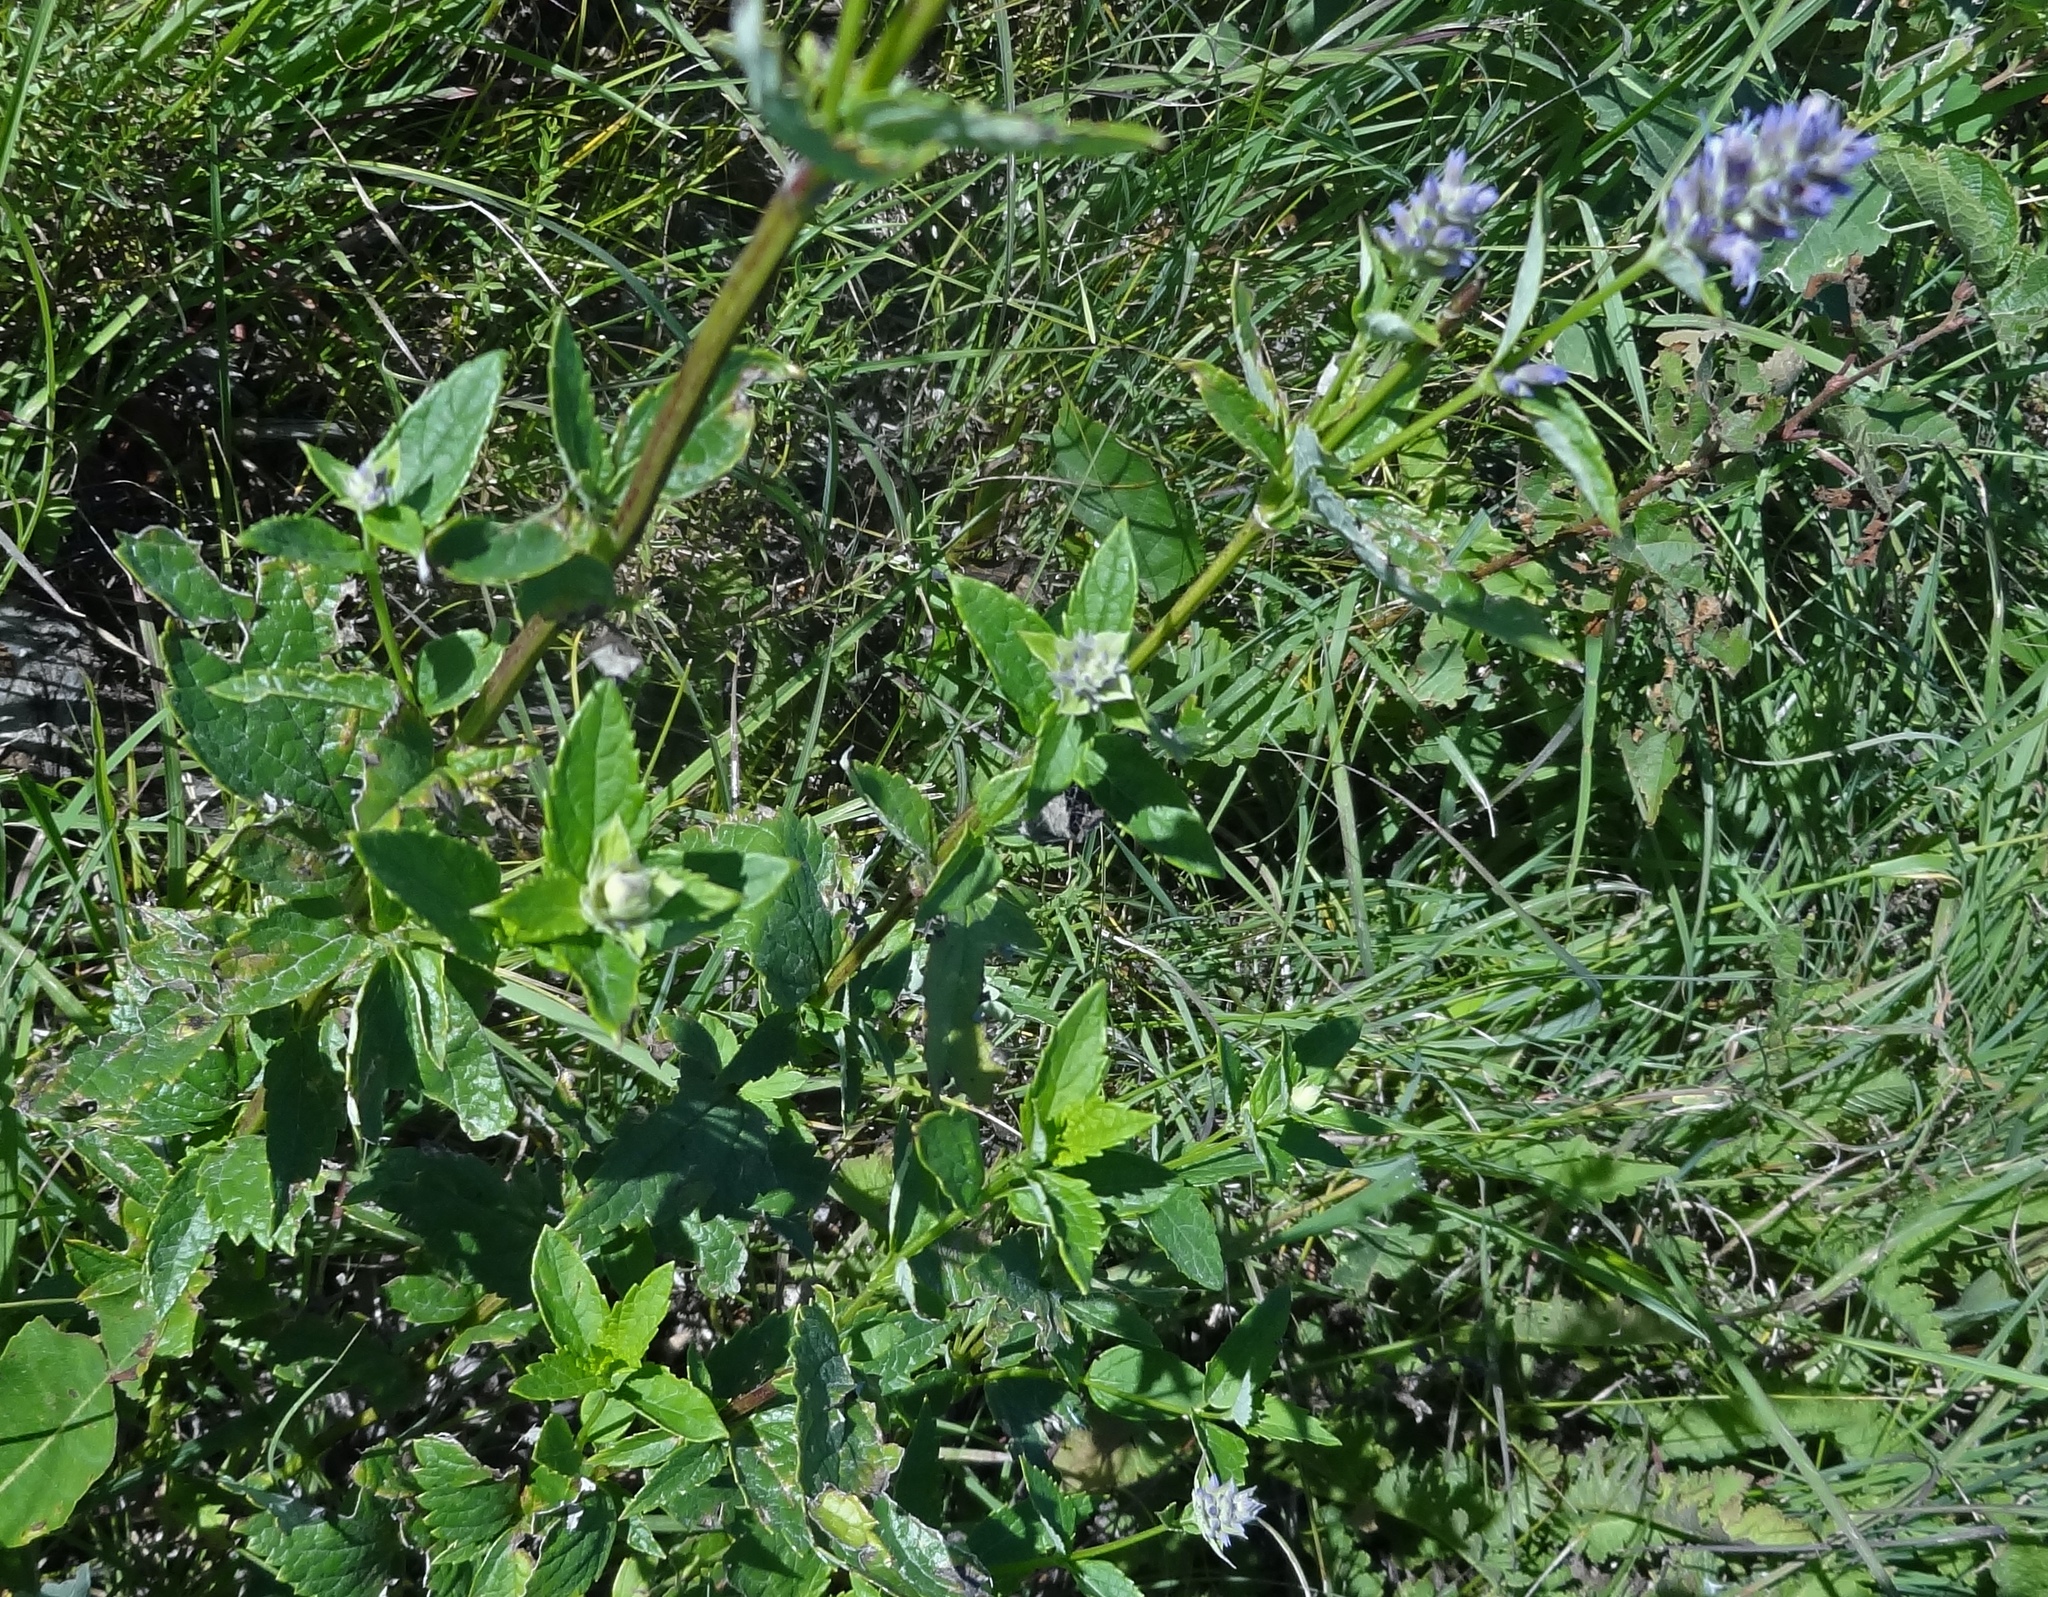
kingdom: Plantae
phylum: Tracheophyta
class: Magnoliopsida
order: Lamiales
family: Lamiaceae
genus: Agastache
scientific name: Agastache foeniculum
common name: Anise hyssop
